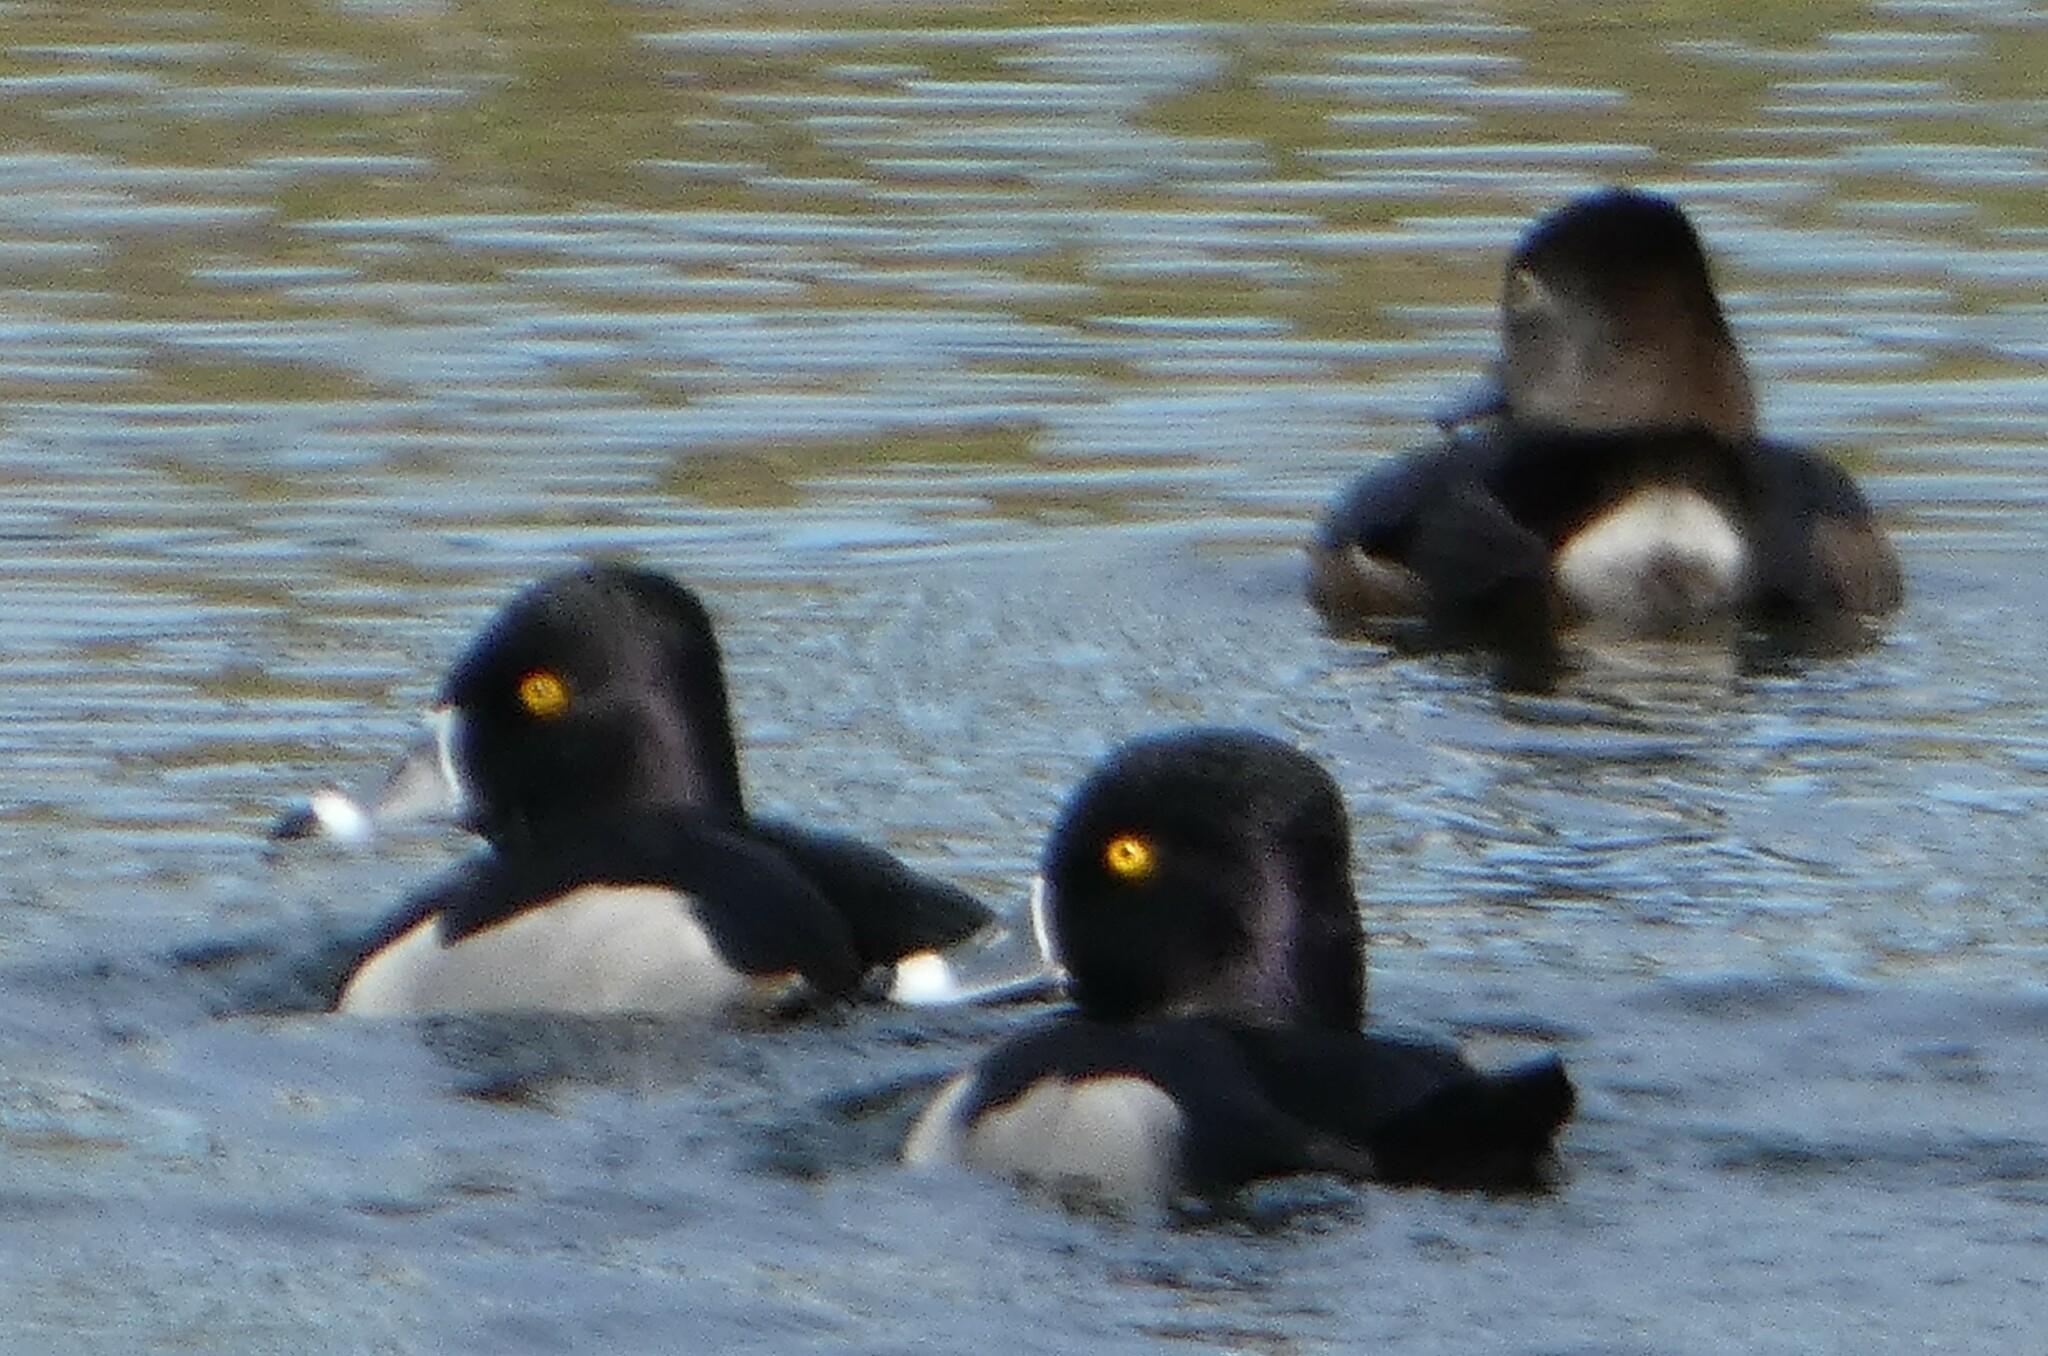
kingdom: Animalia
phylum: Chordata
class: Aves
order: Anseriformes
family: Anatidae
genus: Aythya
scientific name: Aythya collaris
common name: Ring-necked duck
